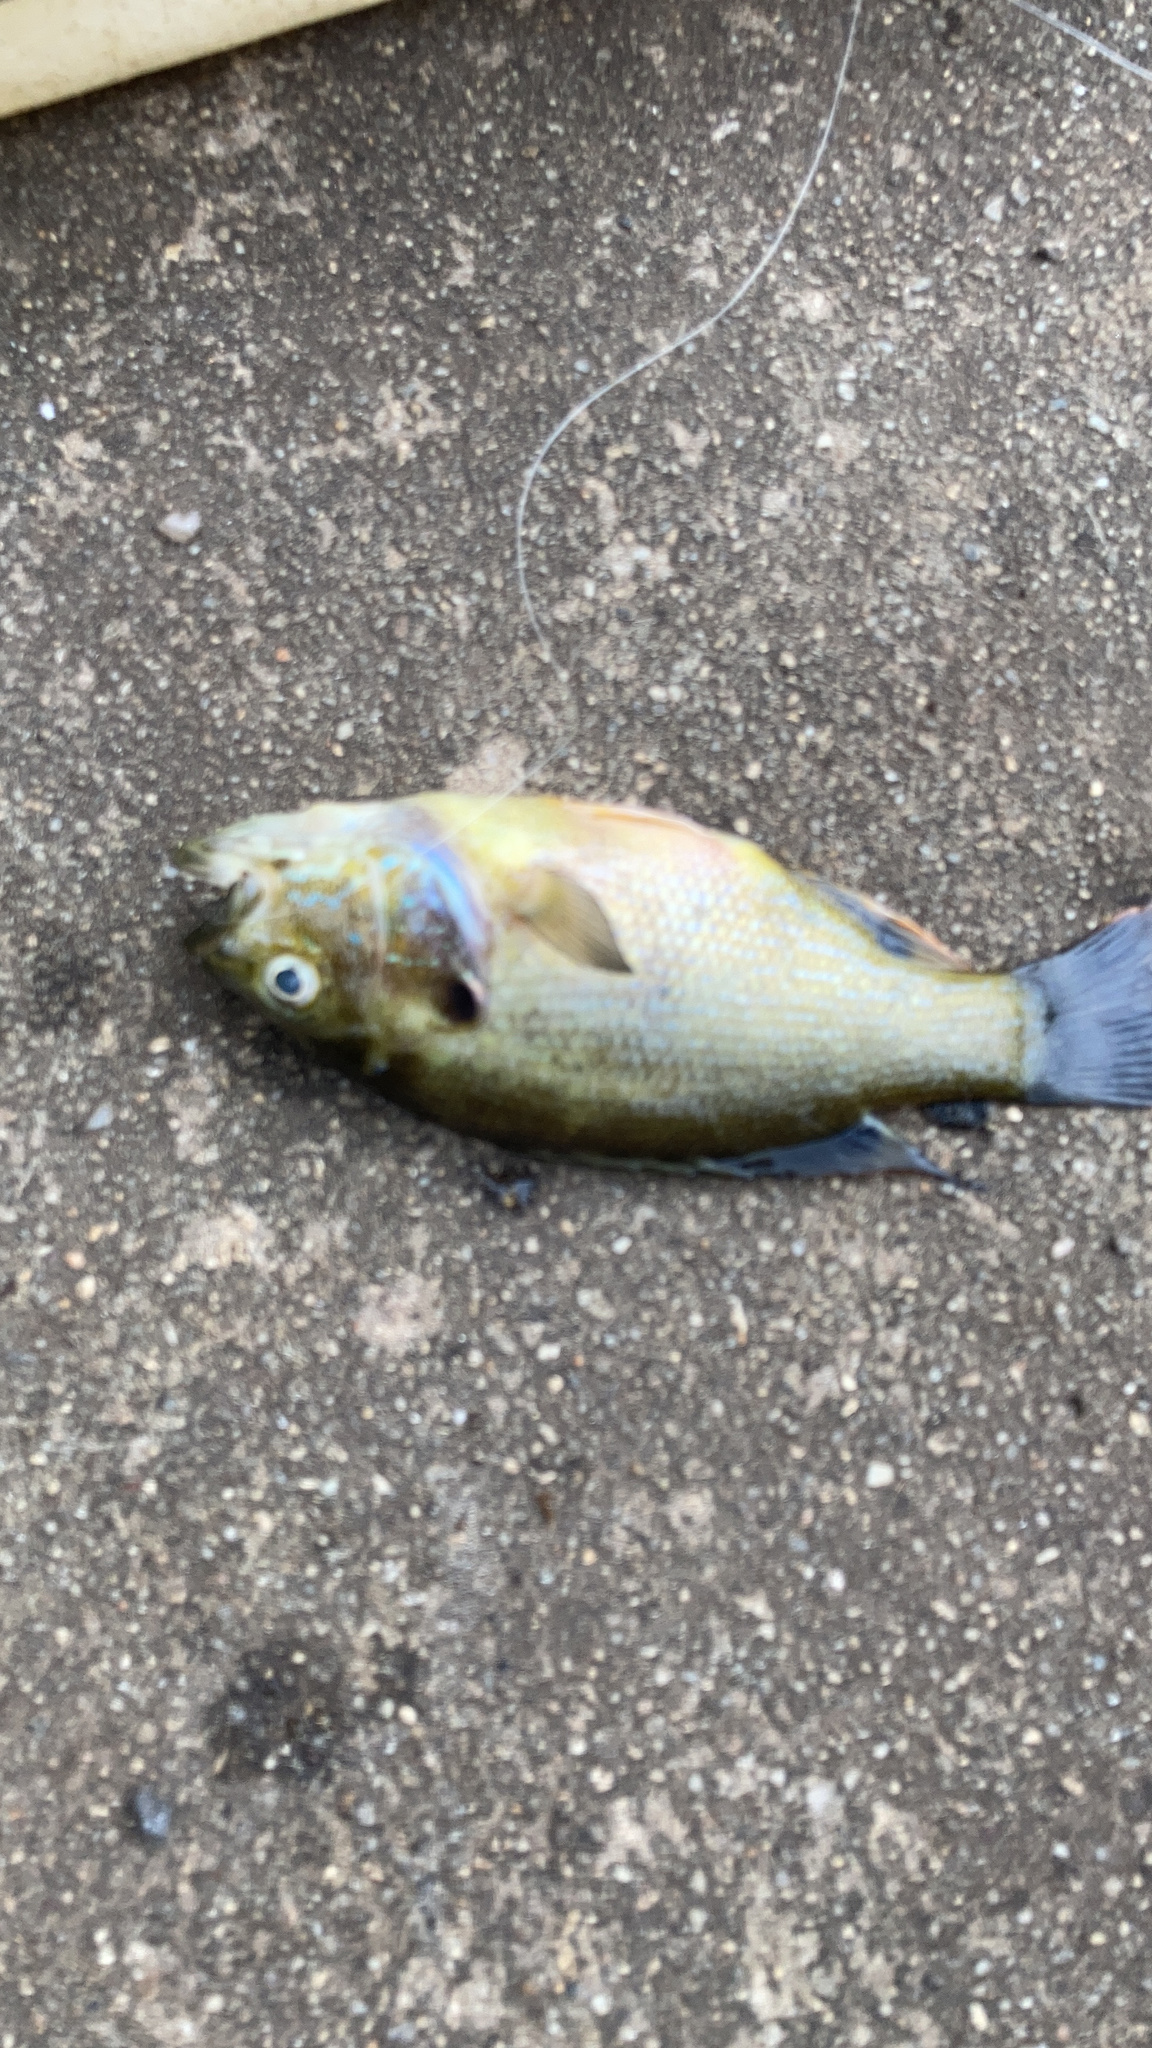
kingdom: Animalia
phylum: Chordata
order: Perciformes
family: Centrarchidae
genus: Lepomis
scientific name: Lepomis cyanellus
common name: Green sunfish
